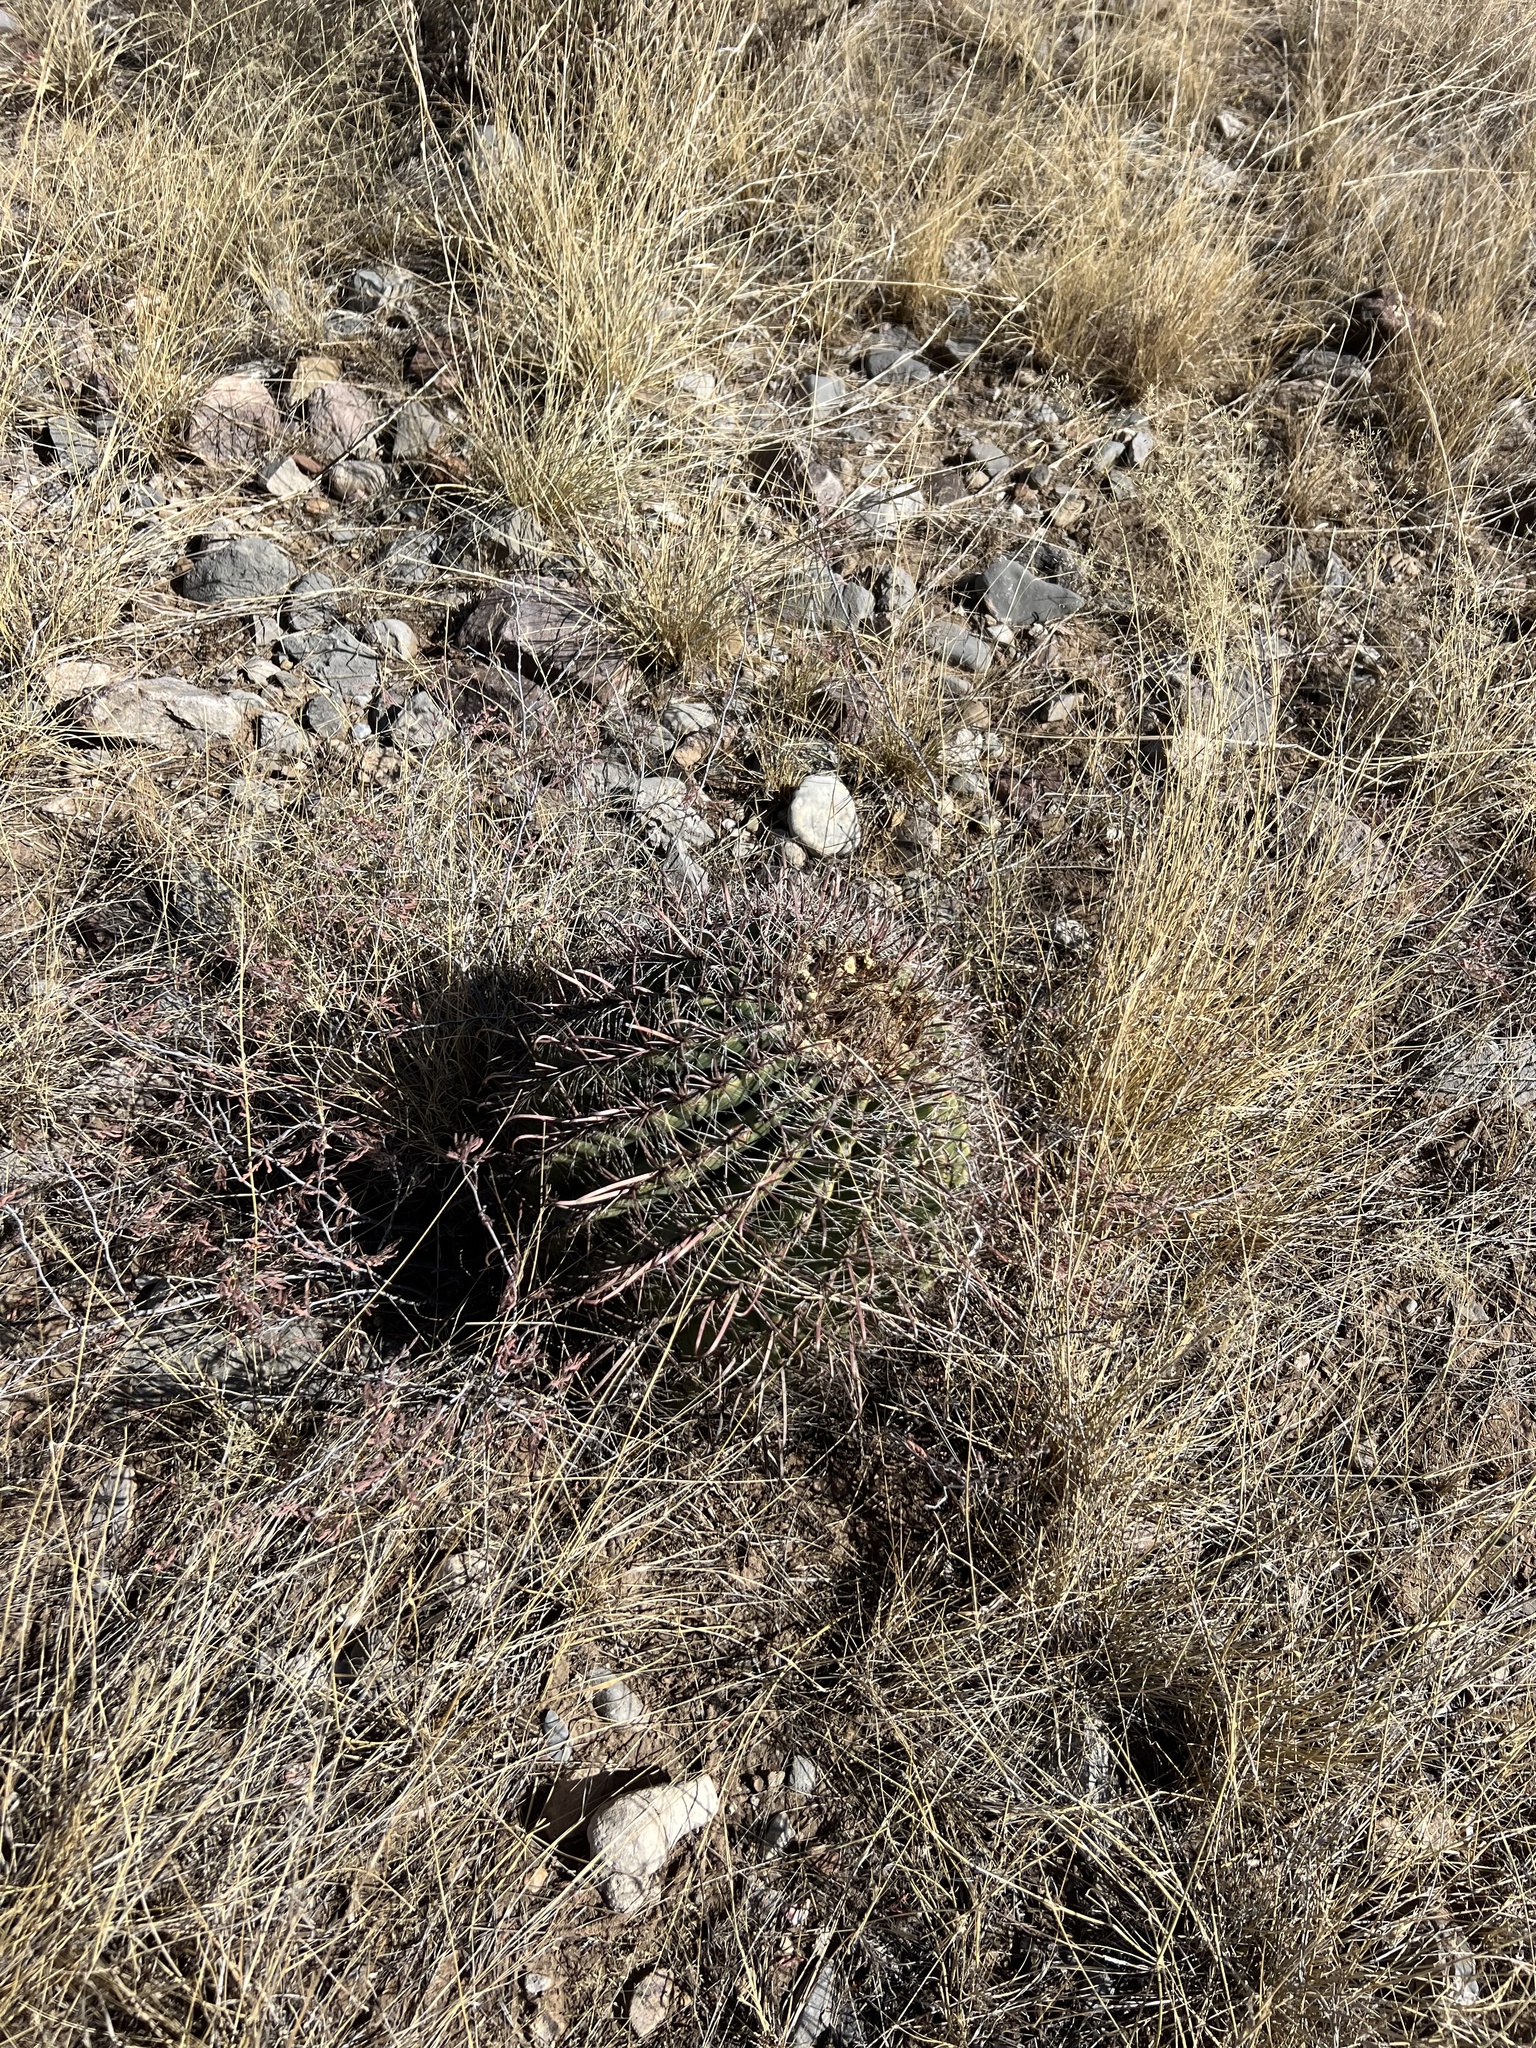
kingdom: Plantae
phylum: Tracheophyta
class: Magnoliopsida
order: Caryophyllales
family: Cactaceae
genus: Ferocactus
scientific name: Ferocactus wislizeni
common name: Candy barrel cactus
